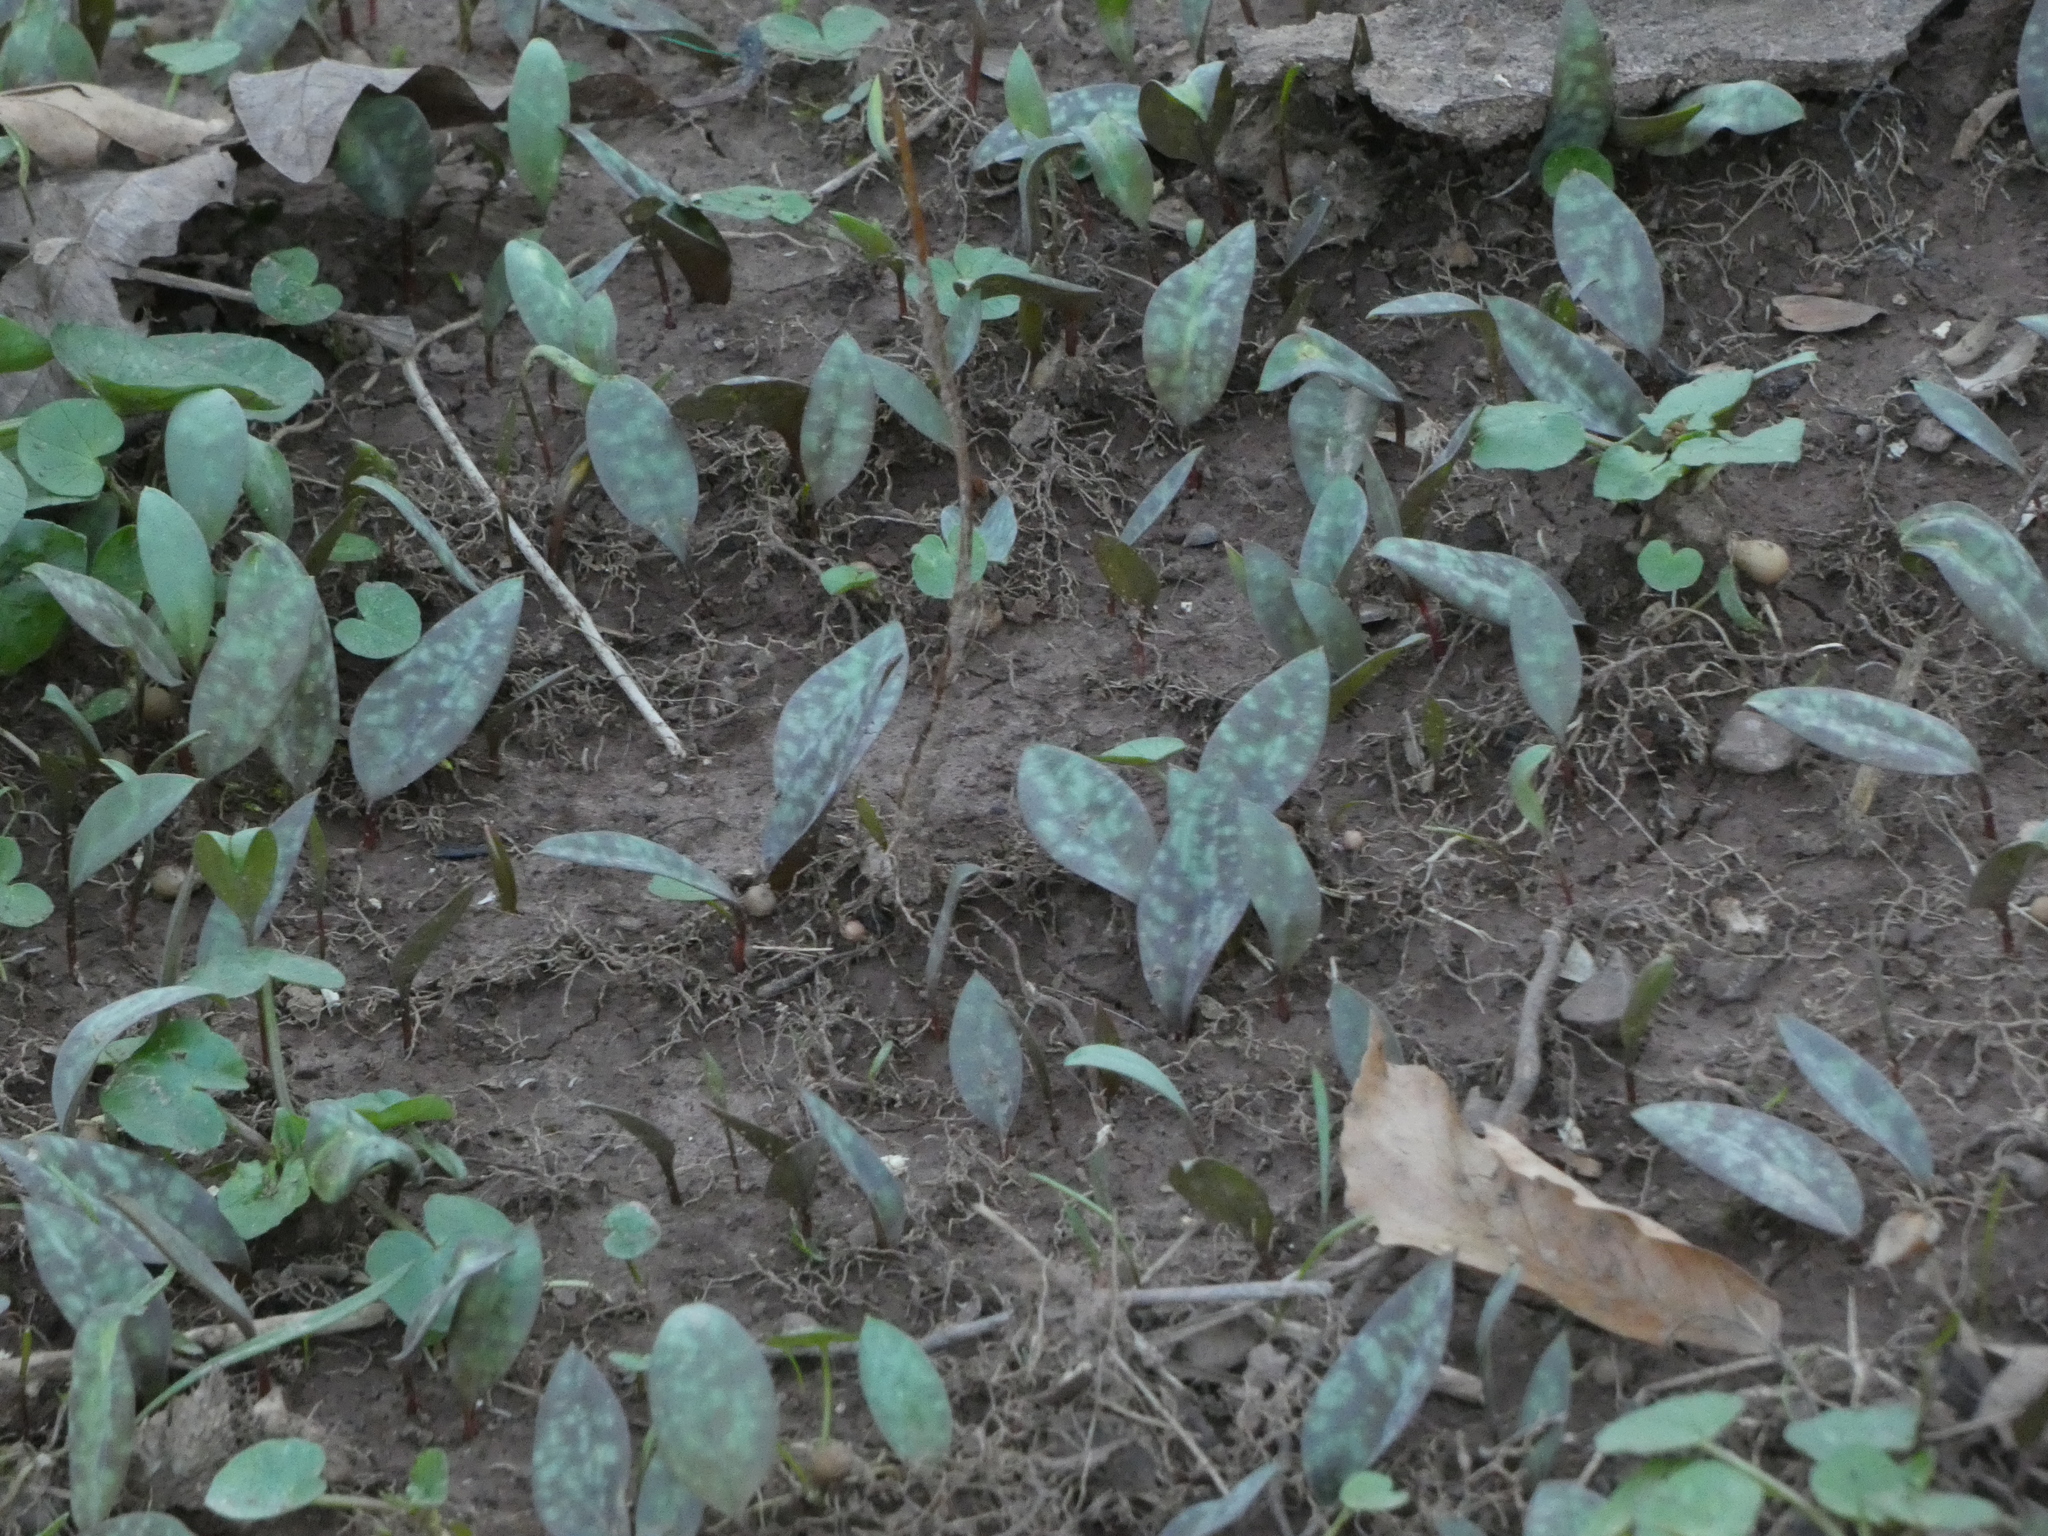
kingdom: Plantae
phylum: Tracheophyta
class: Liliopsida
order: Liliales
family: Liliaceae
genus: Erythronium
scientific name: Erythronium americanum
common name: Yellow adder's-tongue
